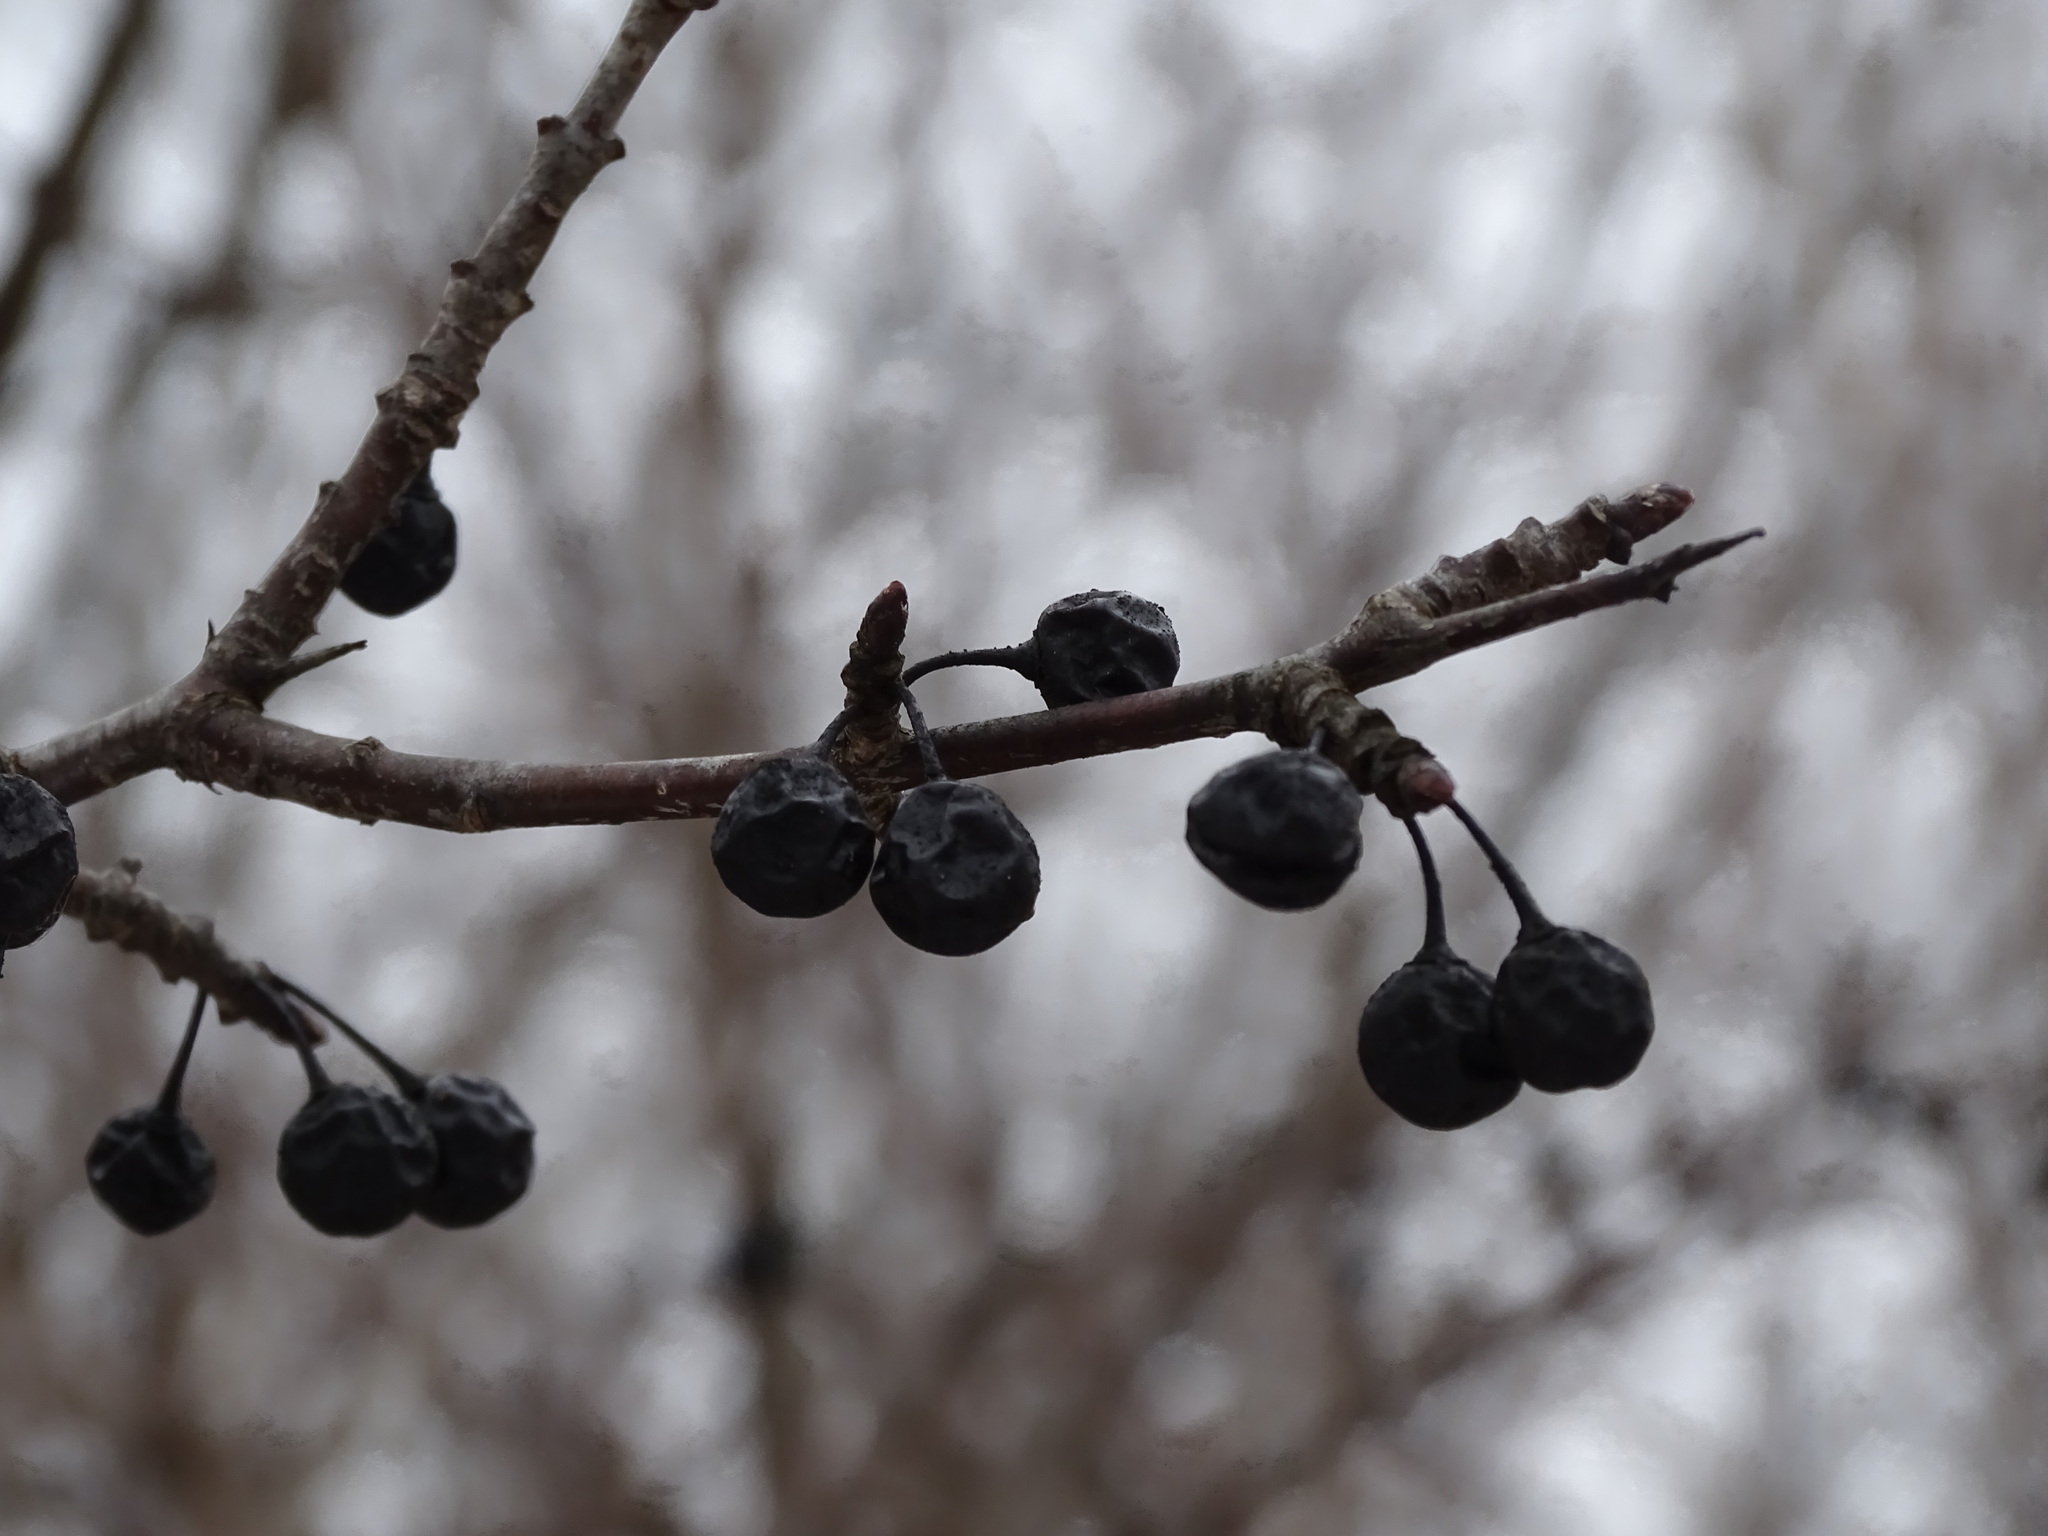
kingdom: Plantae
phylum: Tracheophyta
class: Magnoliopsida
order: Rosales
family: Rhamnaceae
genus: Rhamnus
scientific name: Rhamnus cathartica
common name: Common buckthorn
